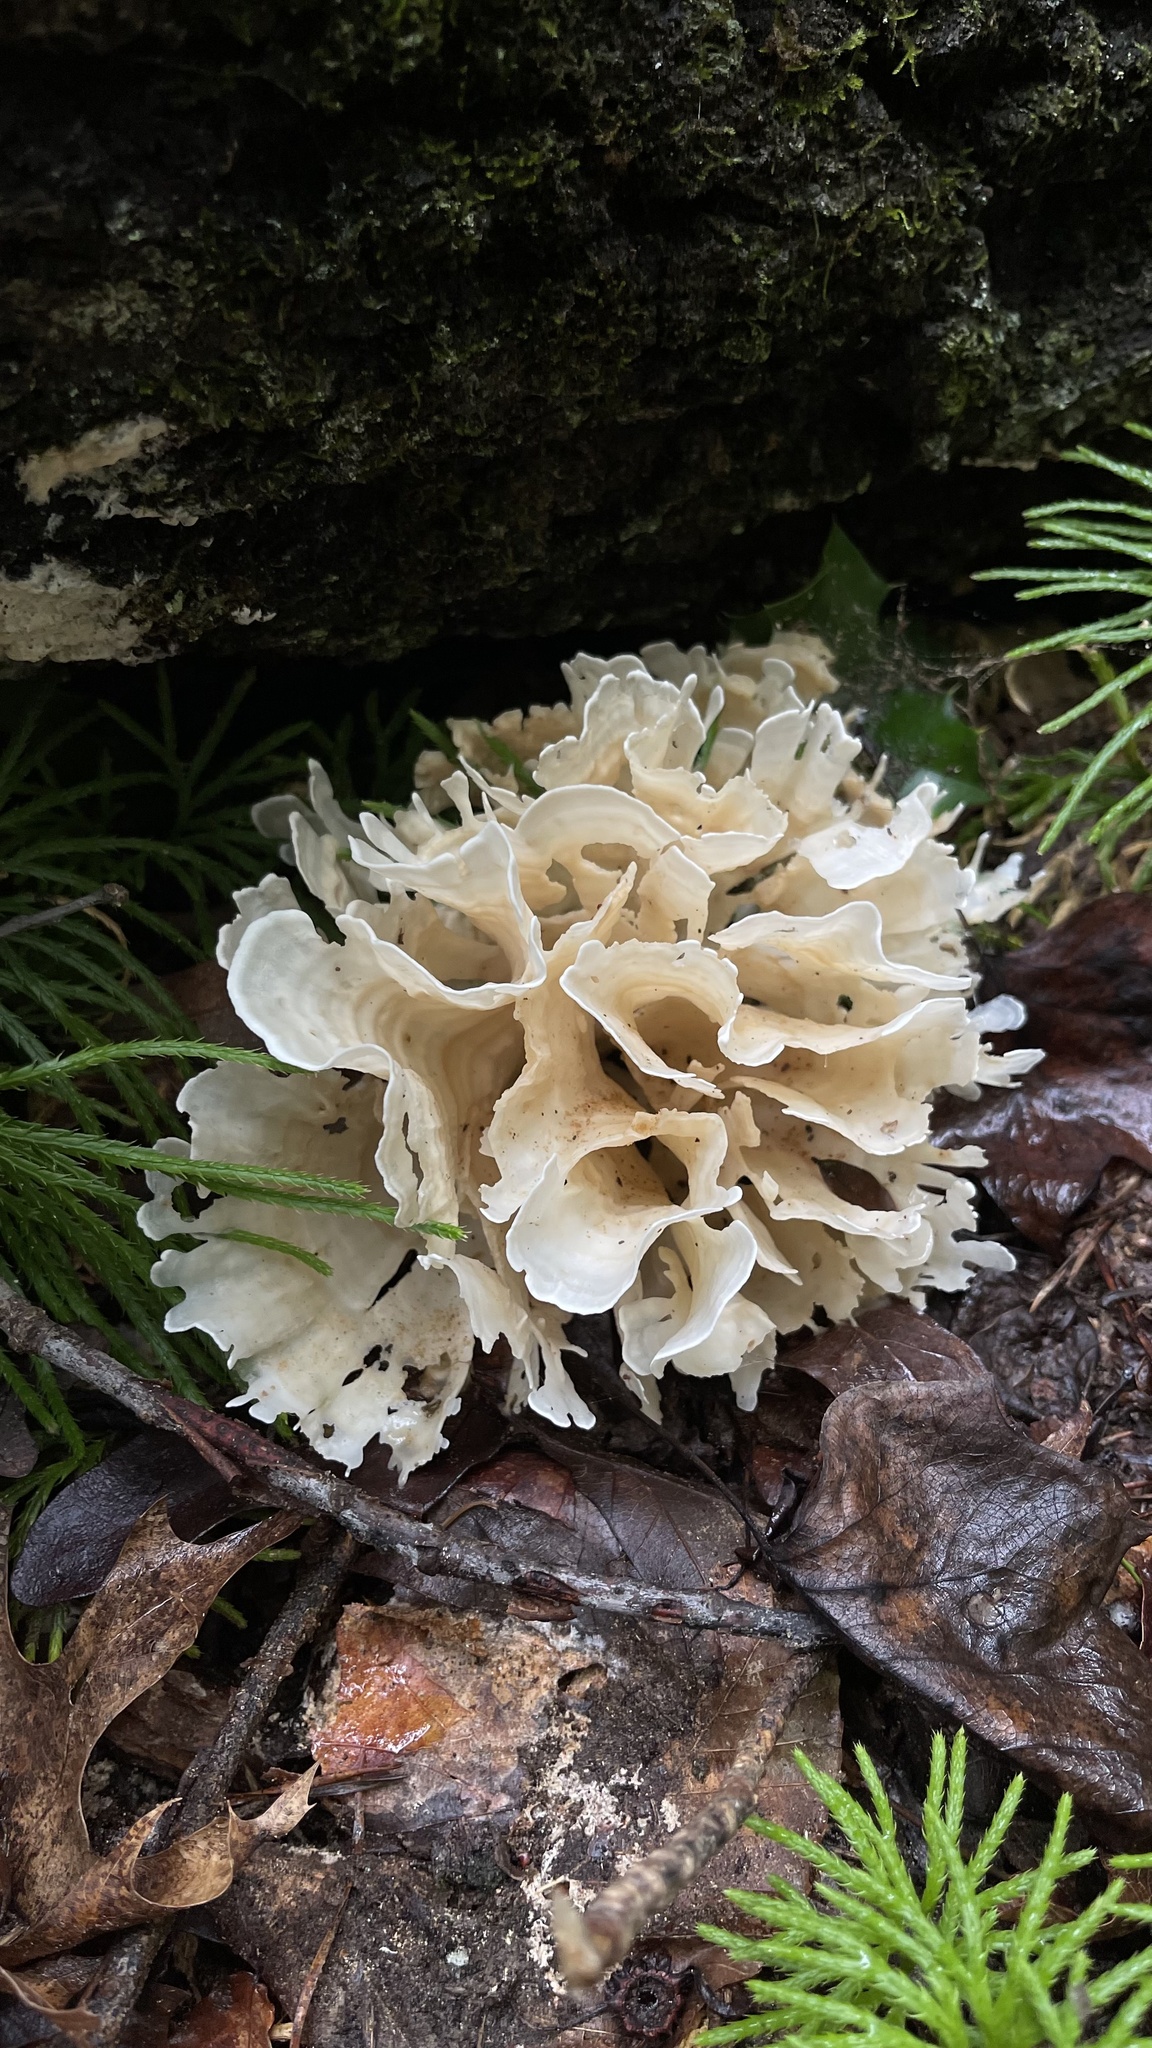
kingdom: Fungi
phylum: Basidiomycota
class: Agaricomycetes
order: Polyporales
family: Sparassidaceae
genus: Sparassis
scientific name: Sparassis spathulata
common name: Eastern cauliflower mushroom
